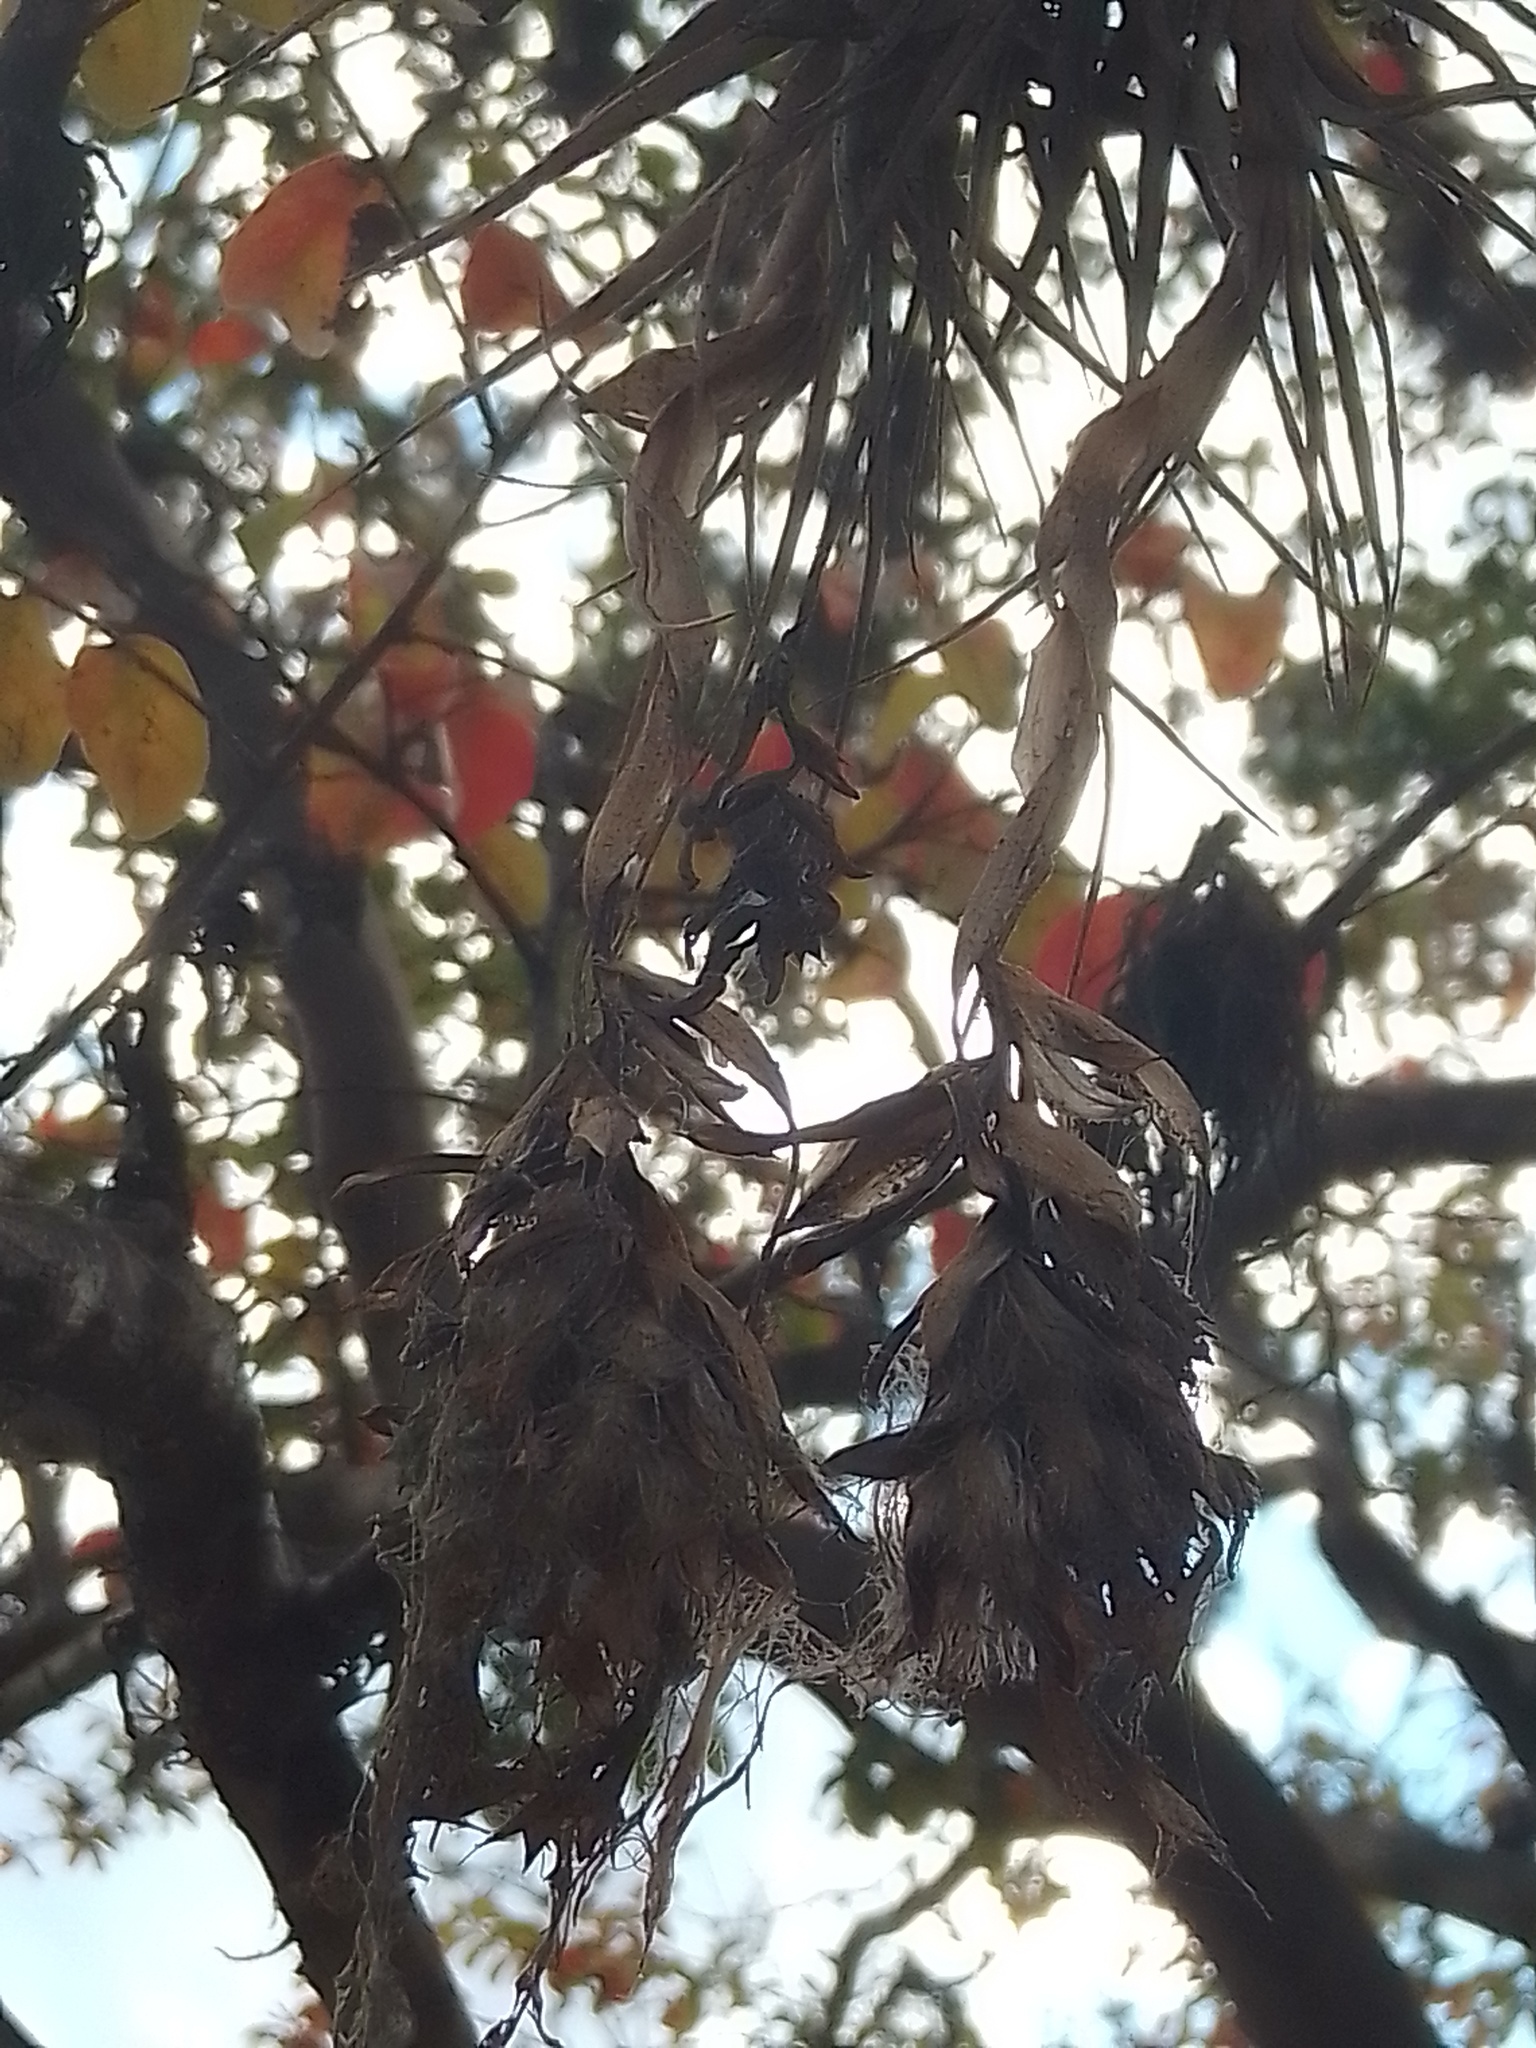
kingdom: Plantae
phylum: Tracheophyta
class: Liliopsida
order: Poales
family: Bromeliaceae
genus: Tillandsia
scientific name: Tillandsia aeranthos
